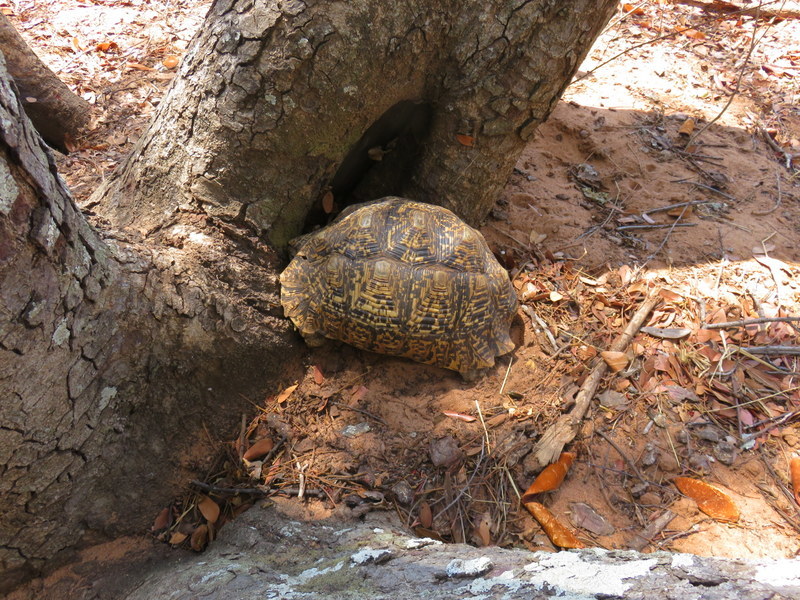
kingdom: Animalia
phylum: Chordata
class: Testudines
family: Testudinidae
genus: Stigmochelys
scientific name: Stigmochelys pardalis
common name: Leopard tortoise
